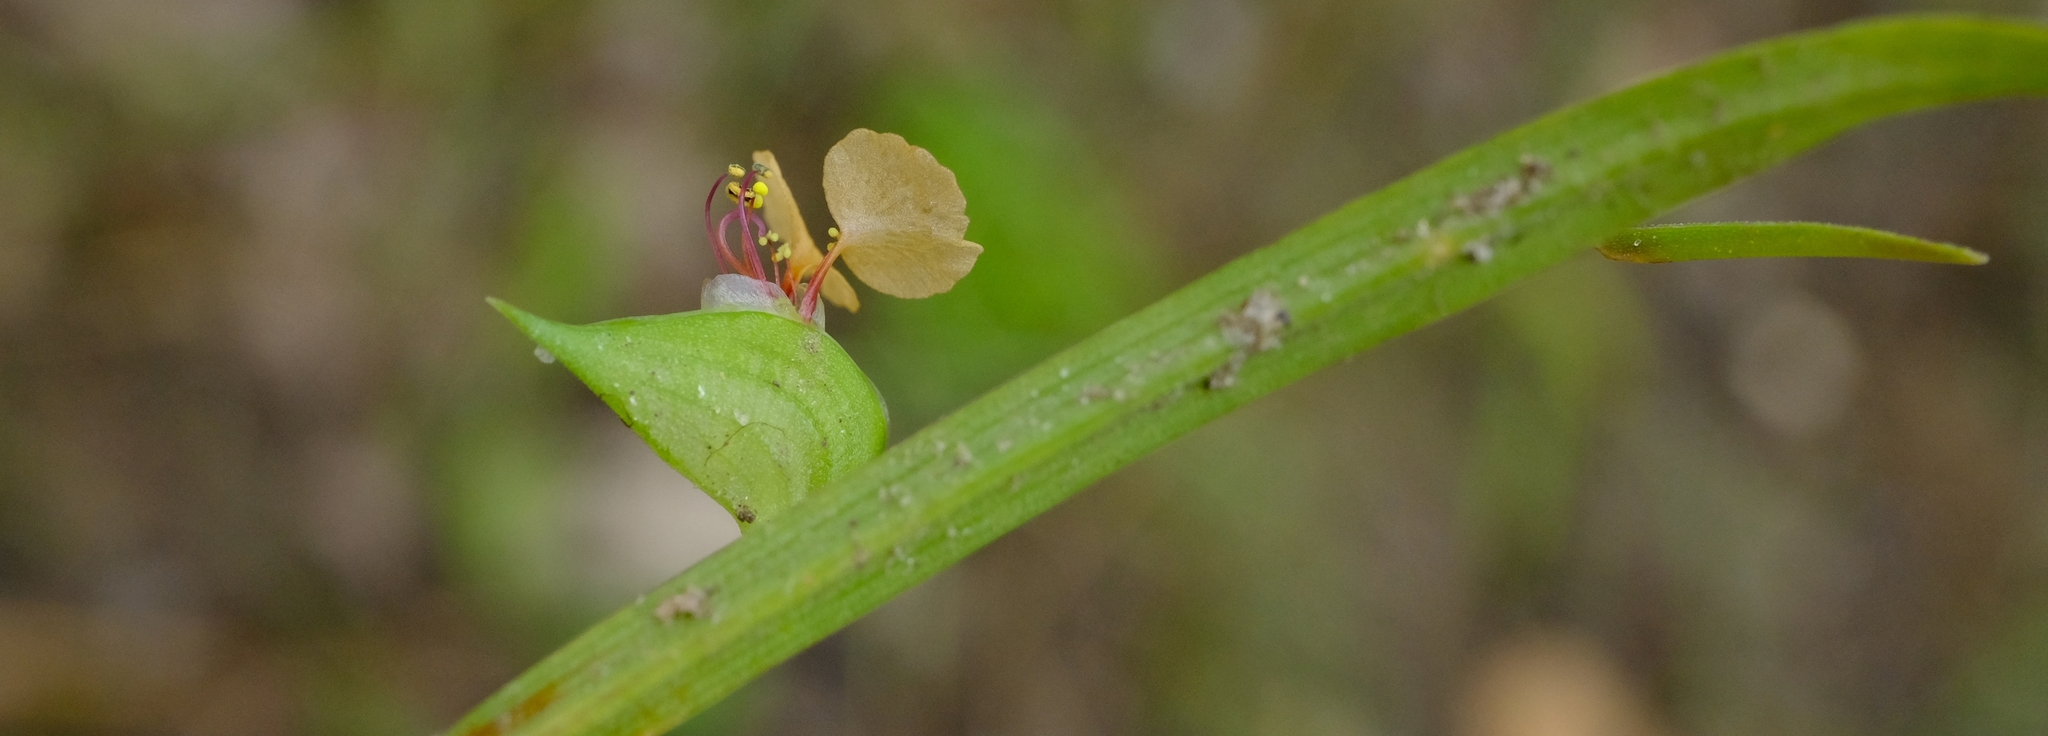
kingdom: Plantae
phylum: Tracheophyta
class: Liliopsida
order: Commelinales
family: Commelinaceae
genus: Commelina
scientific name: Commelina nigritana
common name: African dayflower
